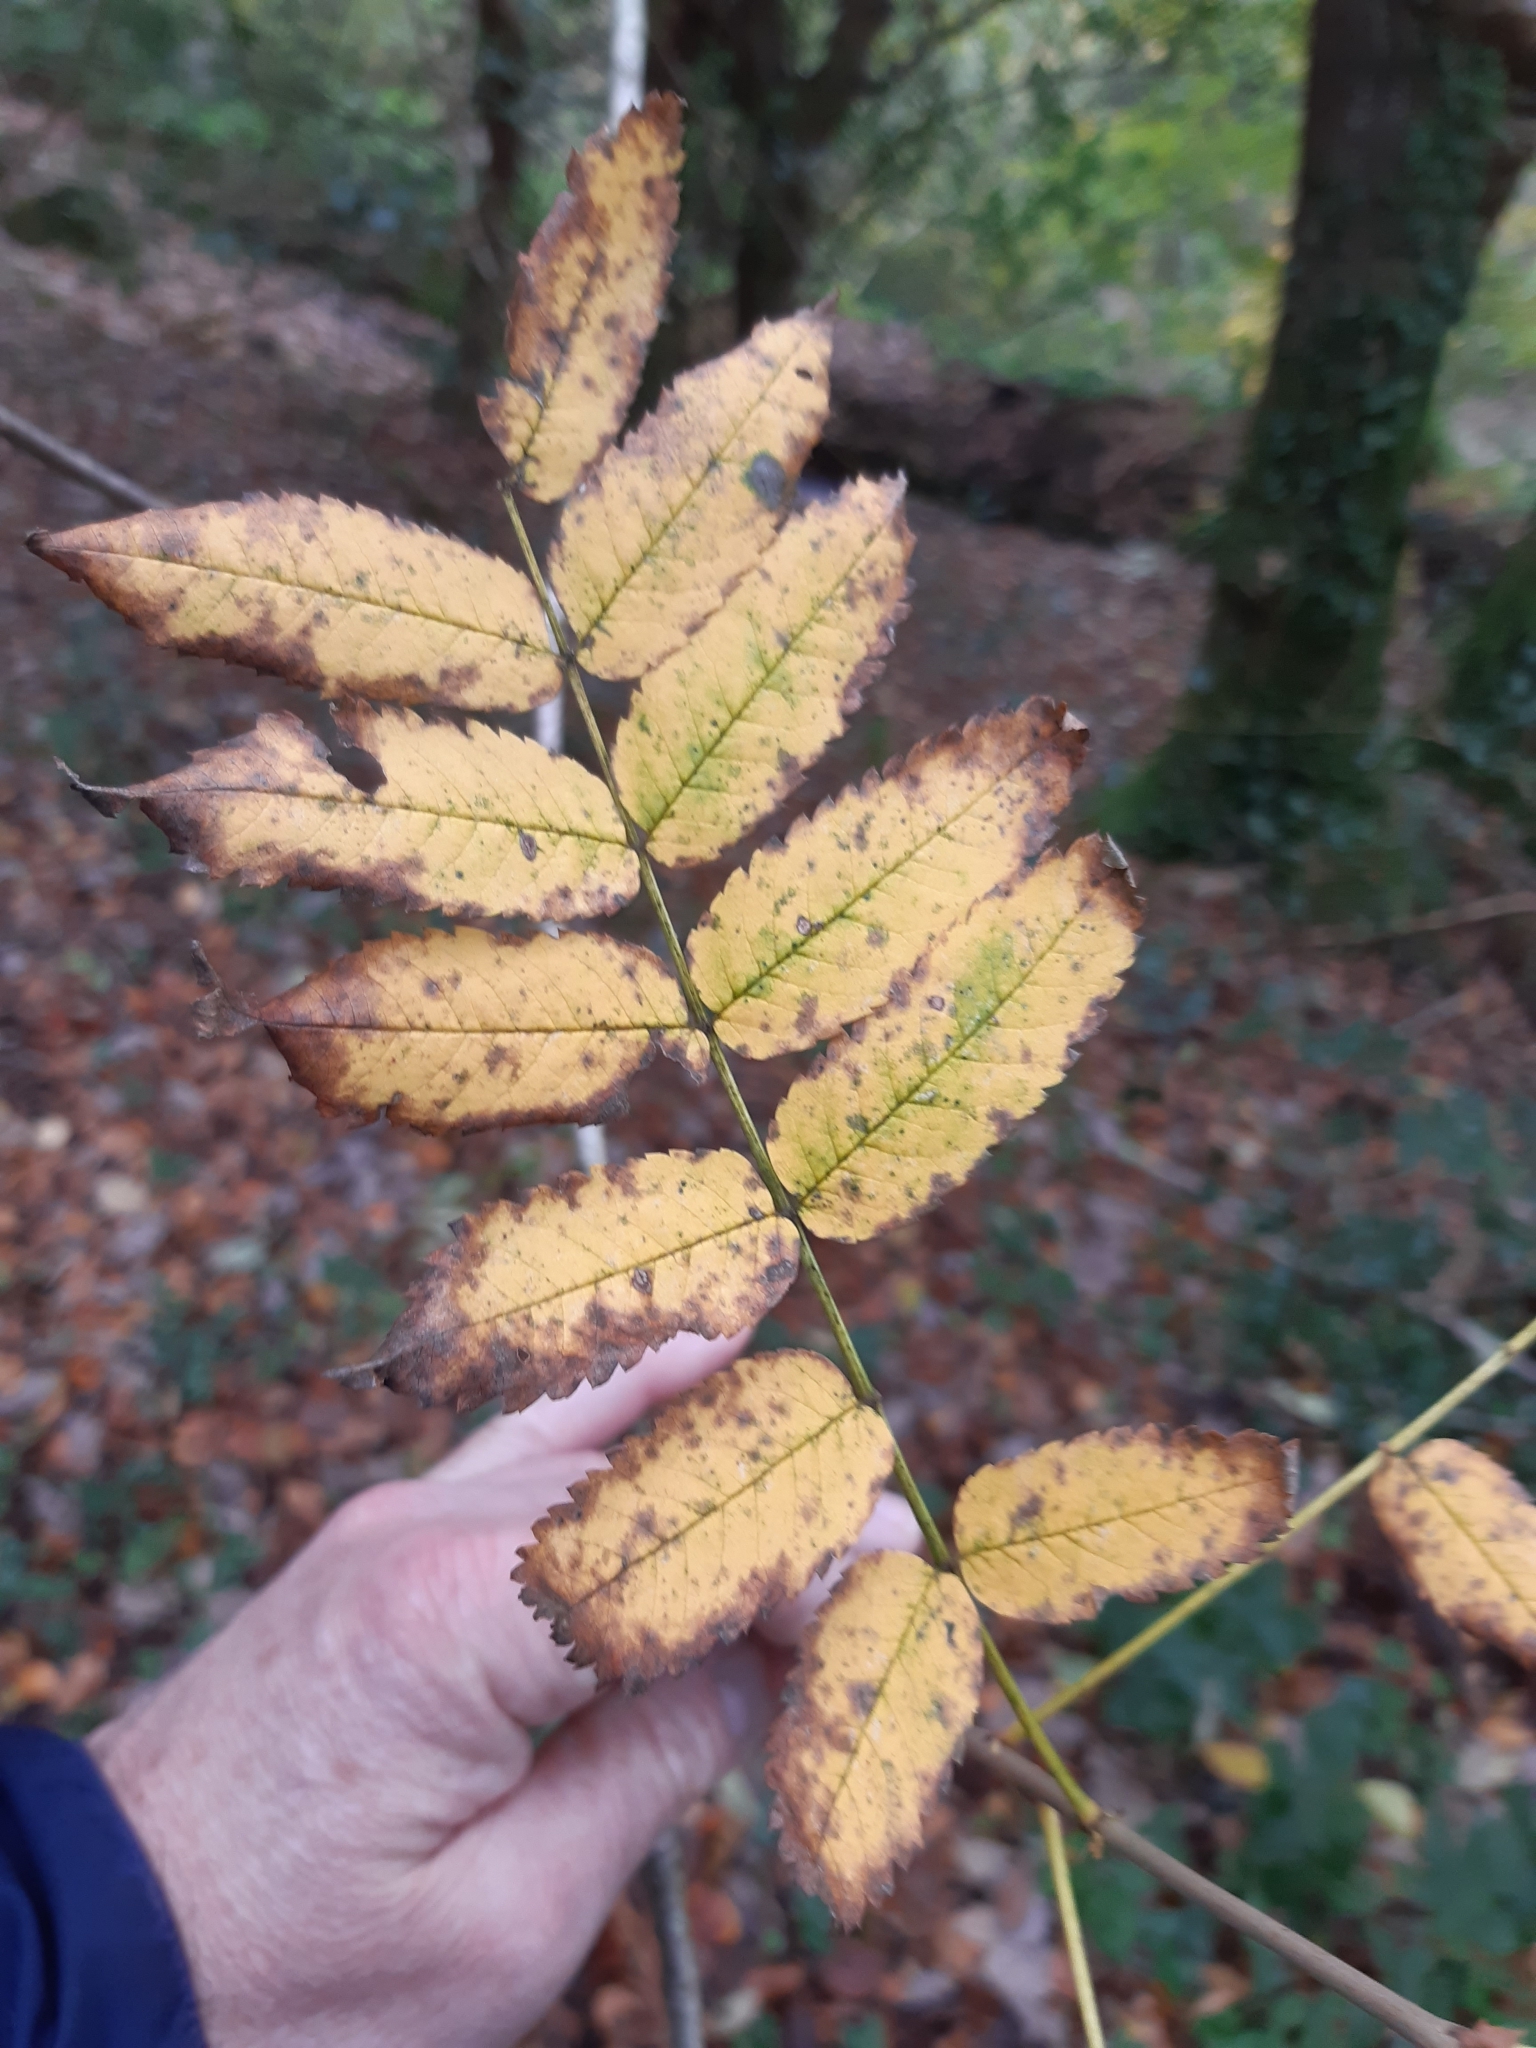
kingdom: Plantae
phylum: Tracheophyta
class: Magnoliopsida
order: Rosales
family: Rosaceae
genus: Sorbus
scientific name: Sorbus aucuparia
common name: Rowan
